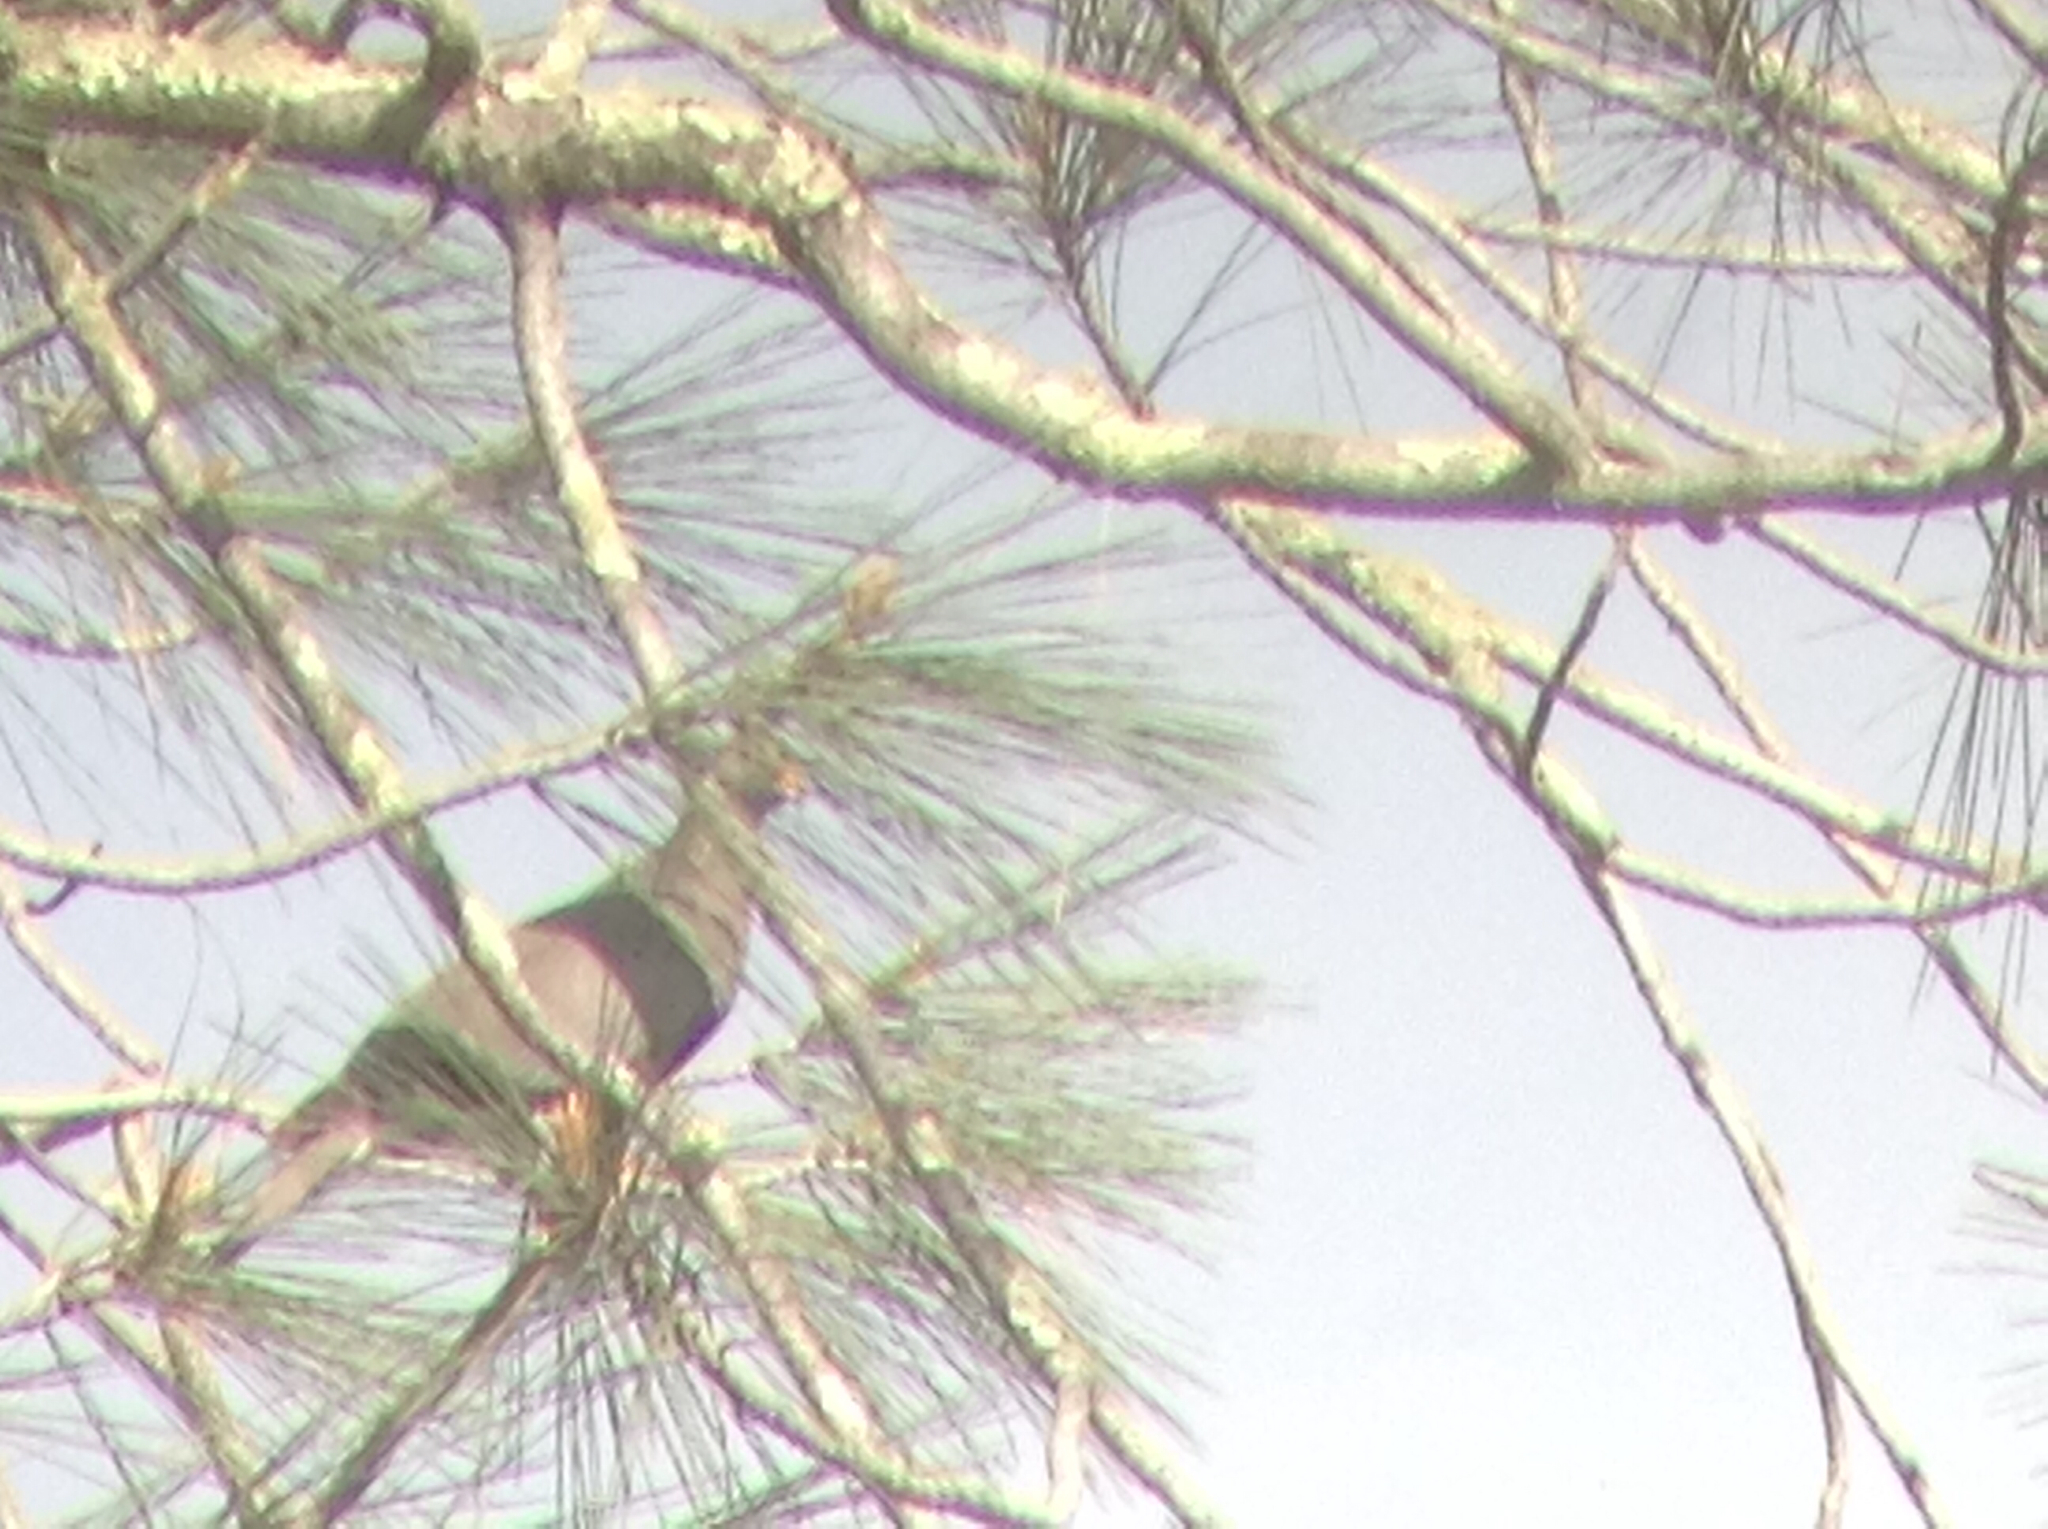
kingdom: Animalia
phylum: Chordata
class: Aves
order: Columbiformes
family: Columbidae
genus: Patagioenas
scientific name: Patagioenas fasciata
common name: Band-tailed pigeon
